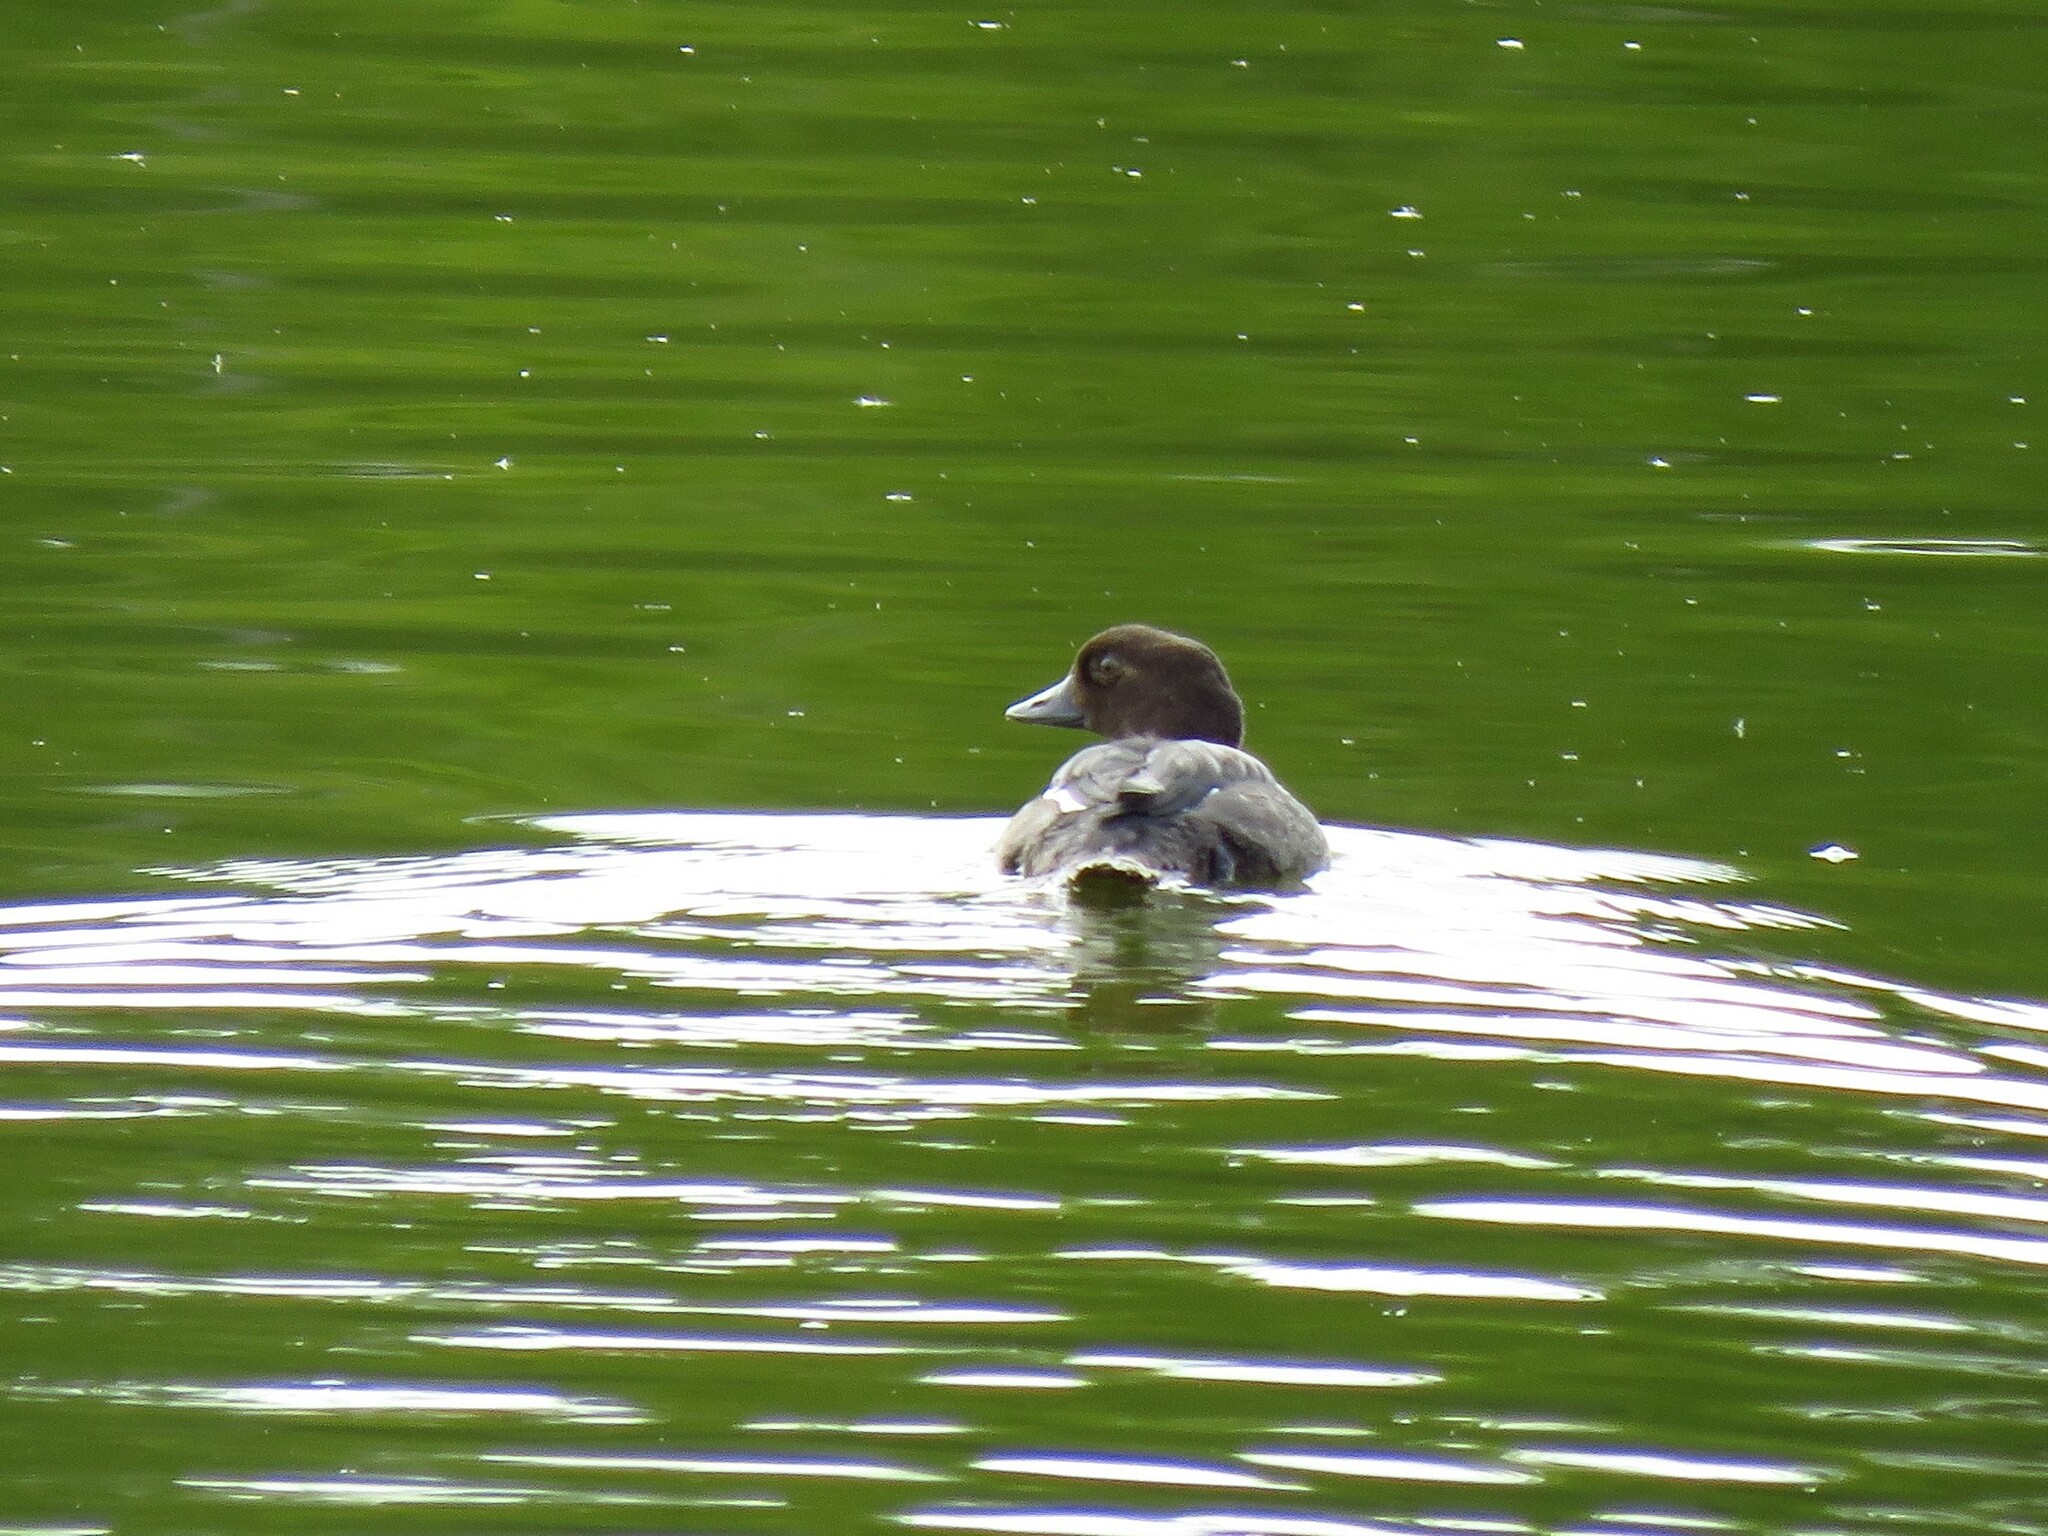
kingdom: Animalia
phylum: Chordata
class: Aves
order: Anseriformes
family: Anatidae
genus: Bucephala
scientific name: Bucephala clangula
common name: Common goldeneye
